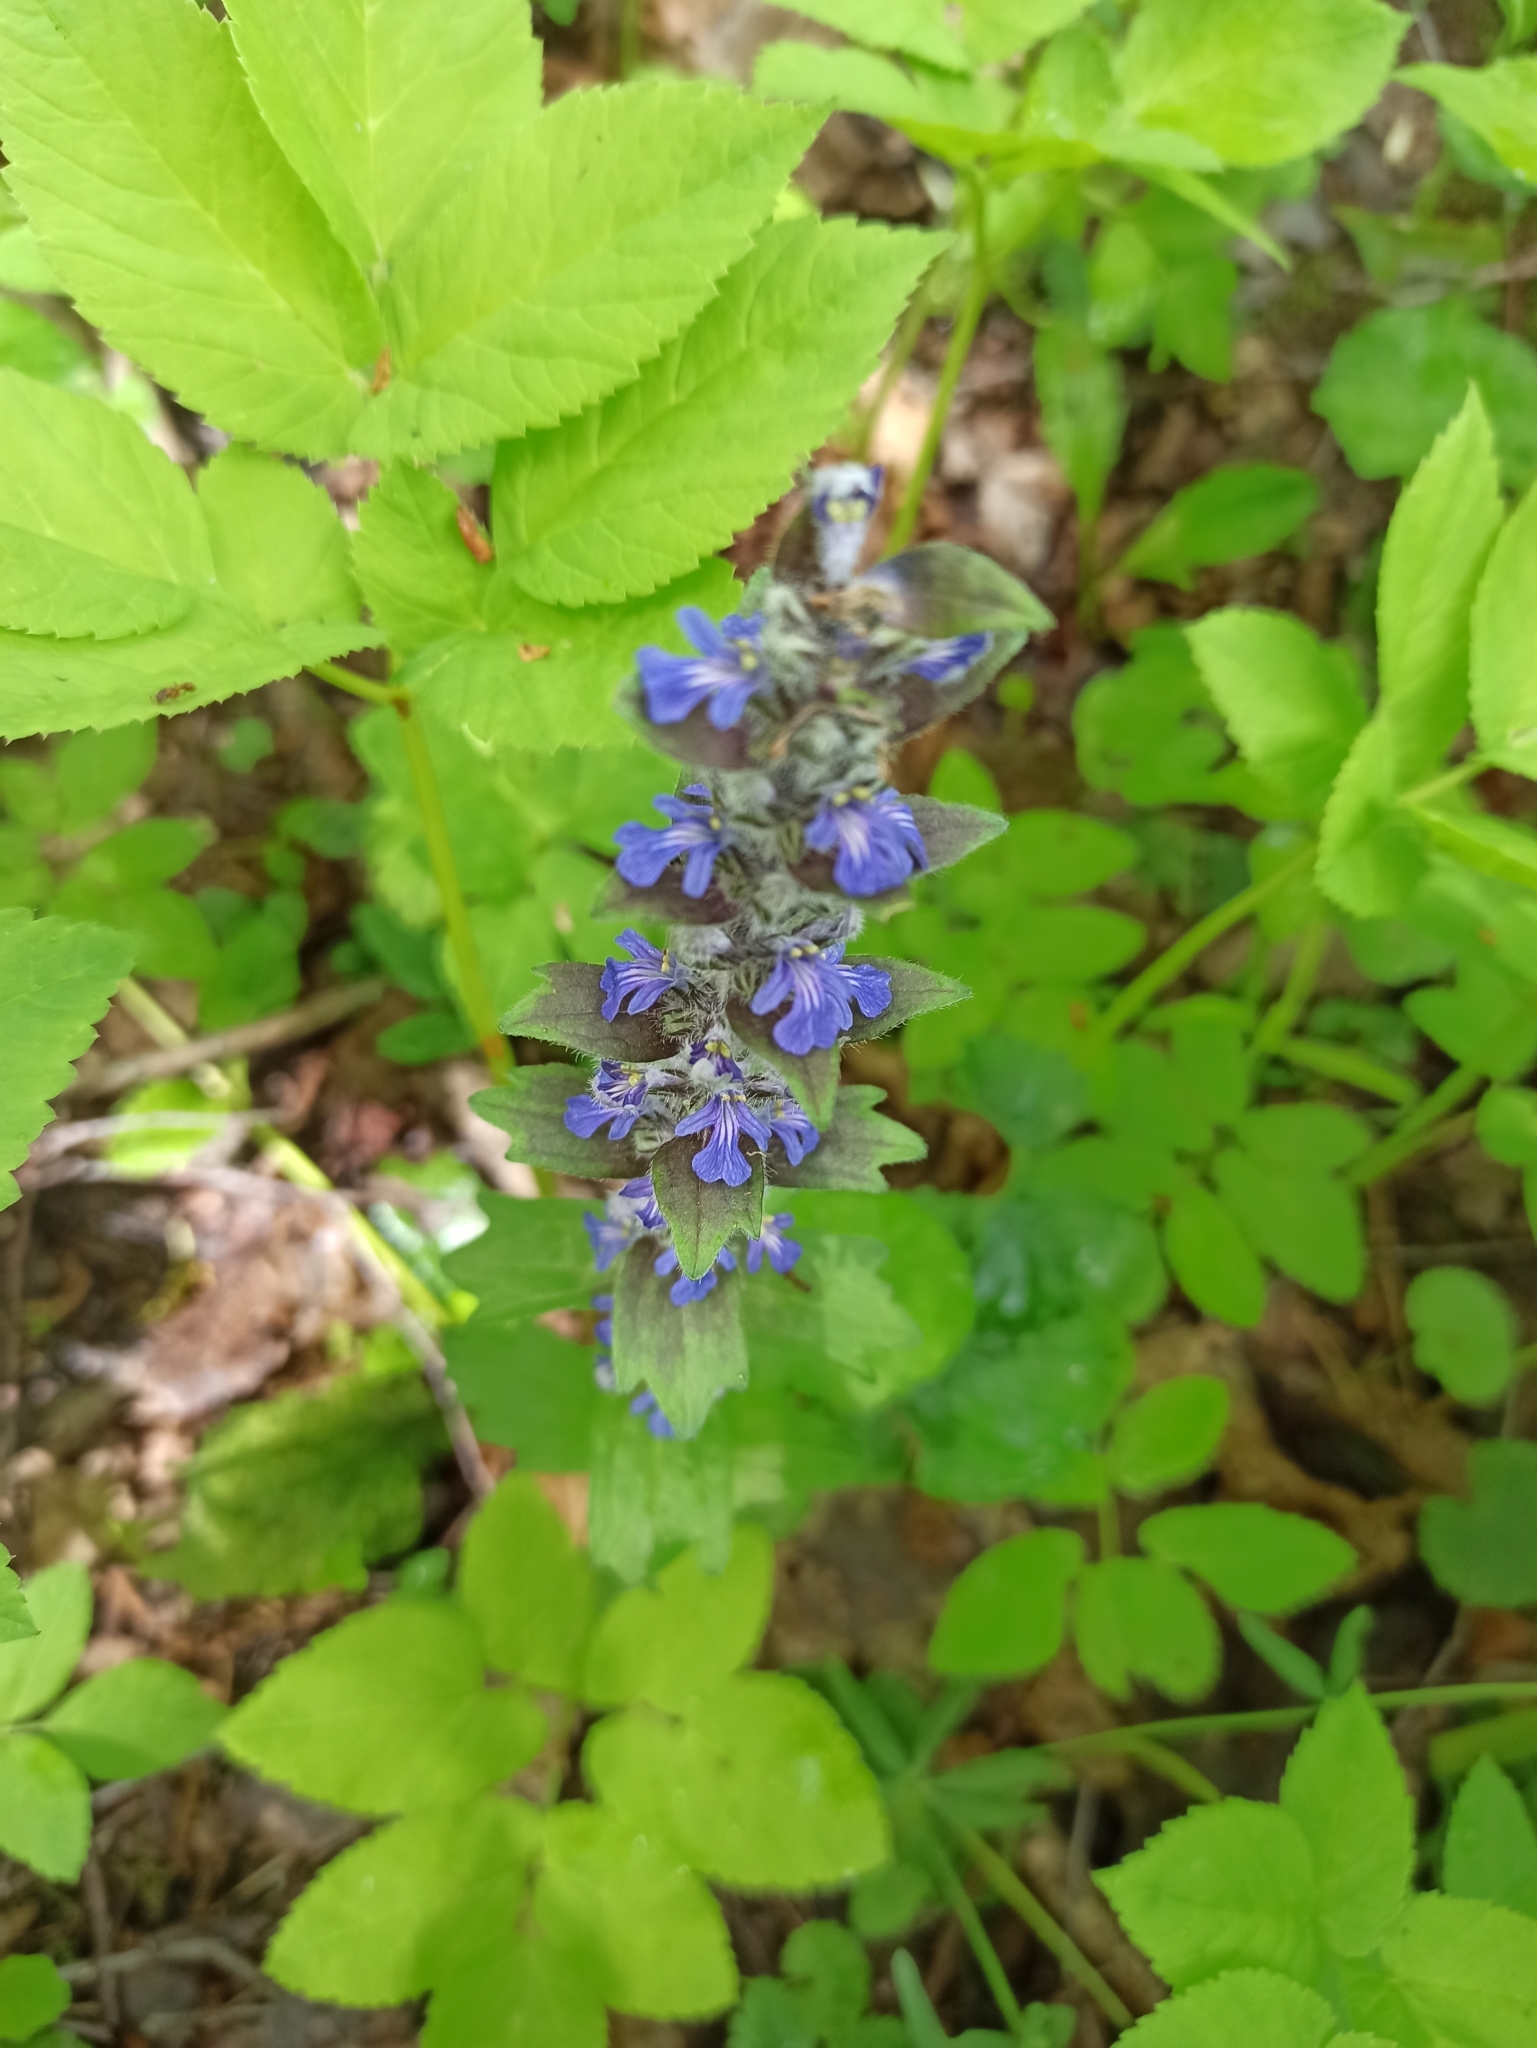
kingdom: Plantae
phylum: Tracheophyta
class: Magnoliopsida
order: Lamiales
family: Lamiaceae
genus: Ajuga
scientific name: Ajuga genevensis
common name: Blue bugle
